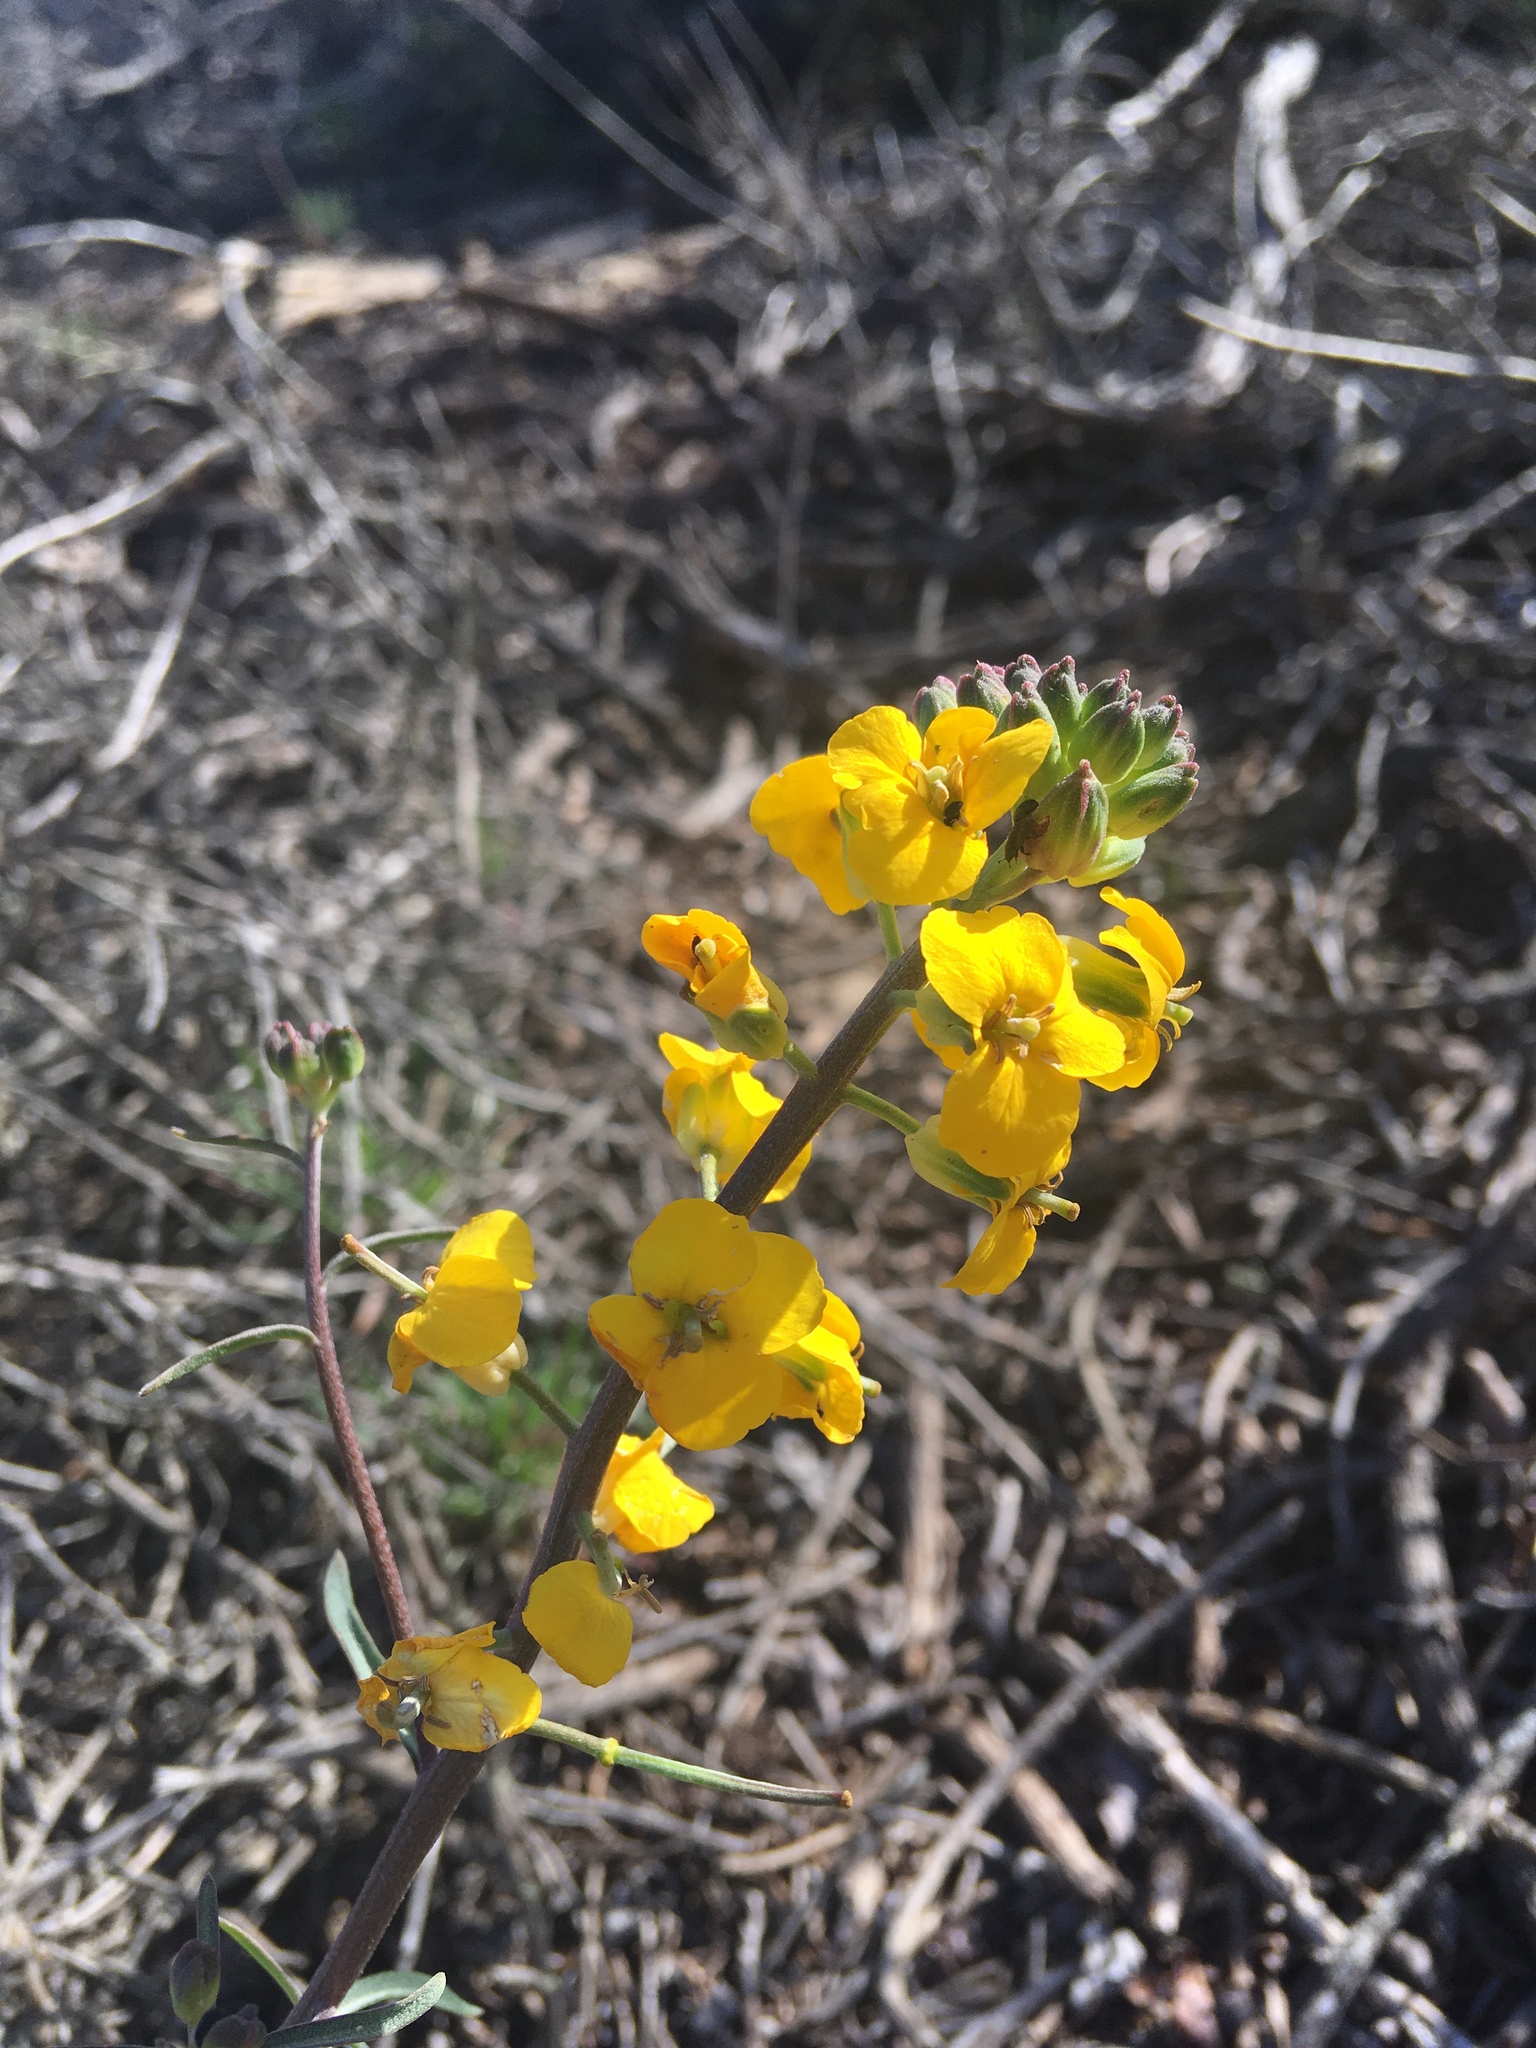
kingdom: Plantae
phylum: Tracheophyta
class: Magnoliopsida
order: Brassicales
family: Brassicaceae
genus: Erysimum
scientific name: Erysimum capitatum
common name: Western wallflower
